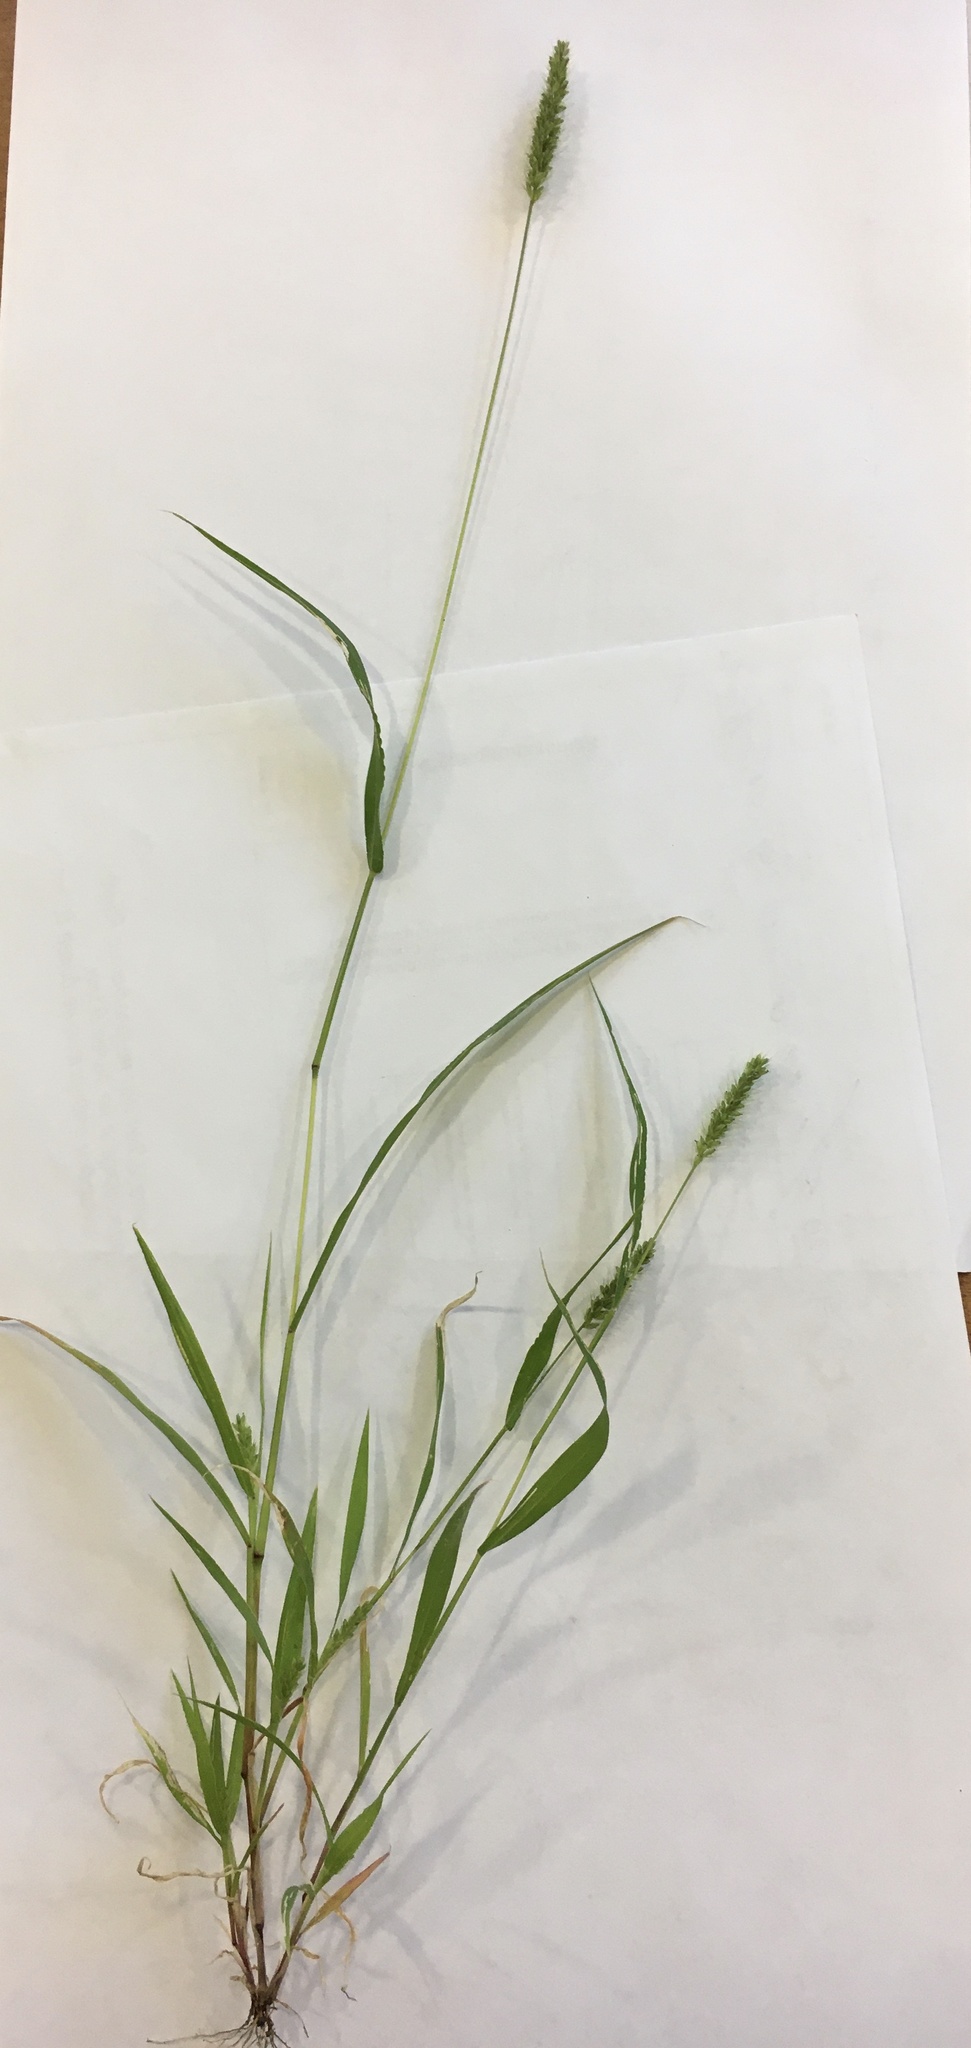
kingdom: Plantae
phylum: Tracheophyta
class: Liliopsida
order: Poales
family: Poaceae
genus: Setaria
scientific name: Setaria viridis
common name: Green bristlegrass
